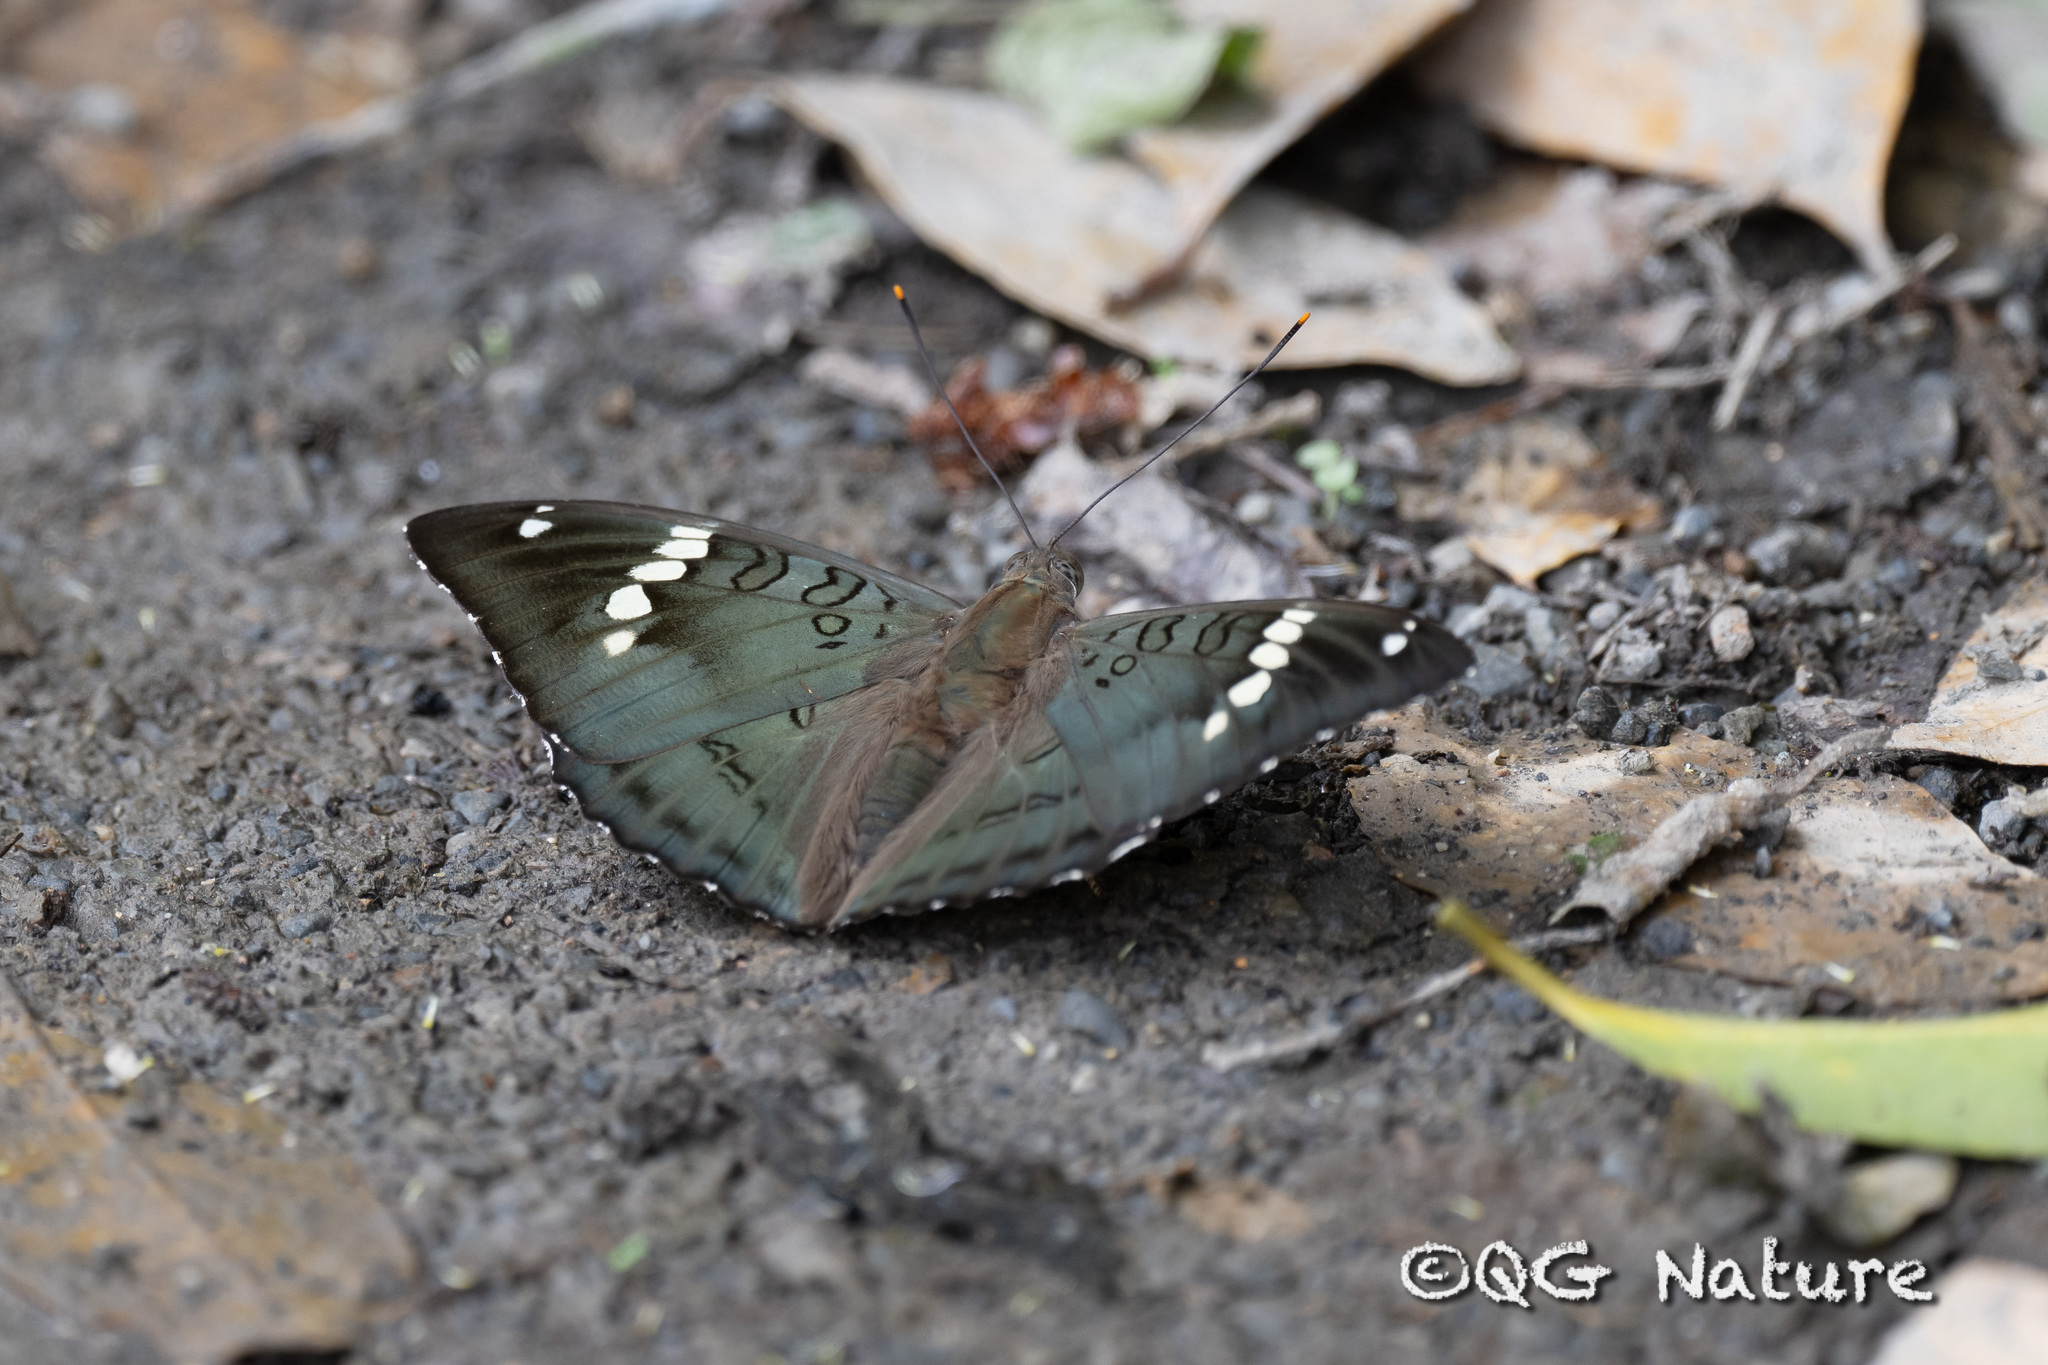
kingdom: Animalia
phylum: Arthropoda
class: Insecta
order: Lepidoptera
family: Nymphalidae
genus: Euthalia
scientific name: Euthalia pratti
